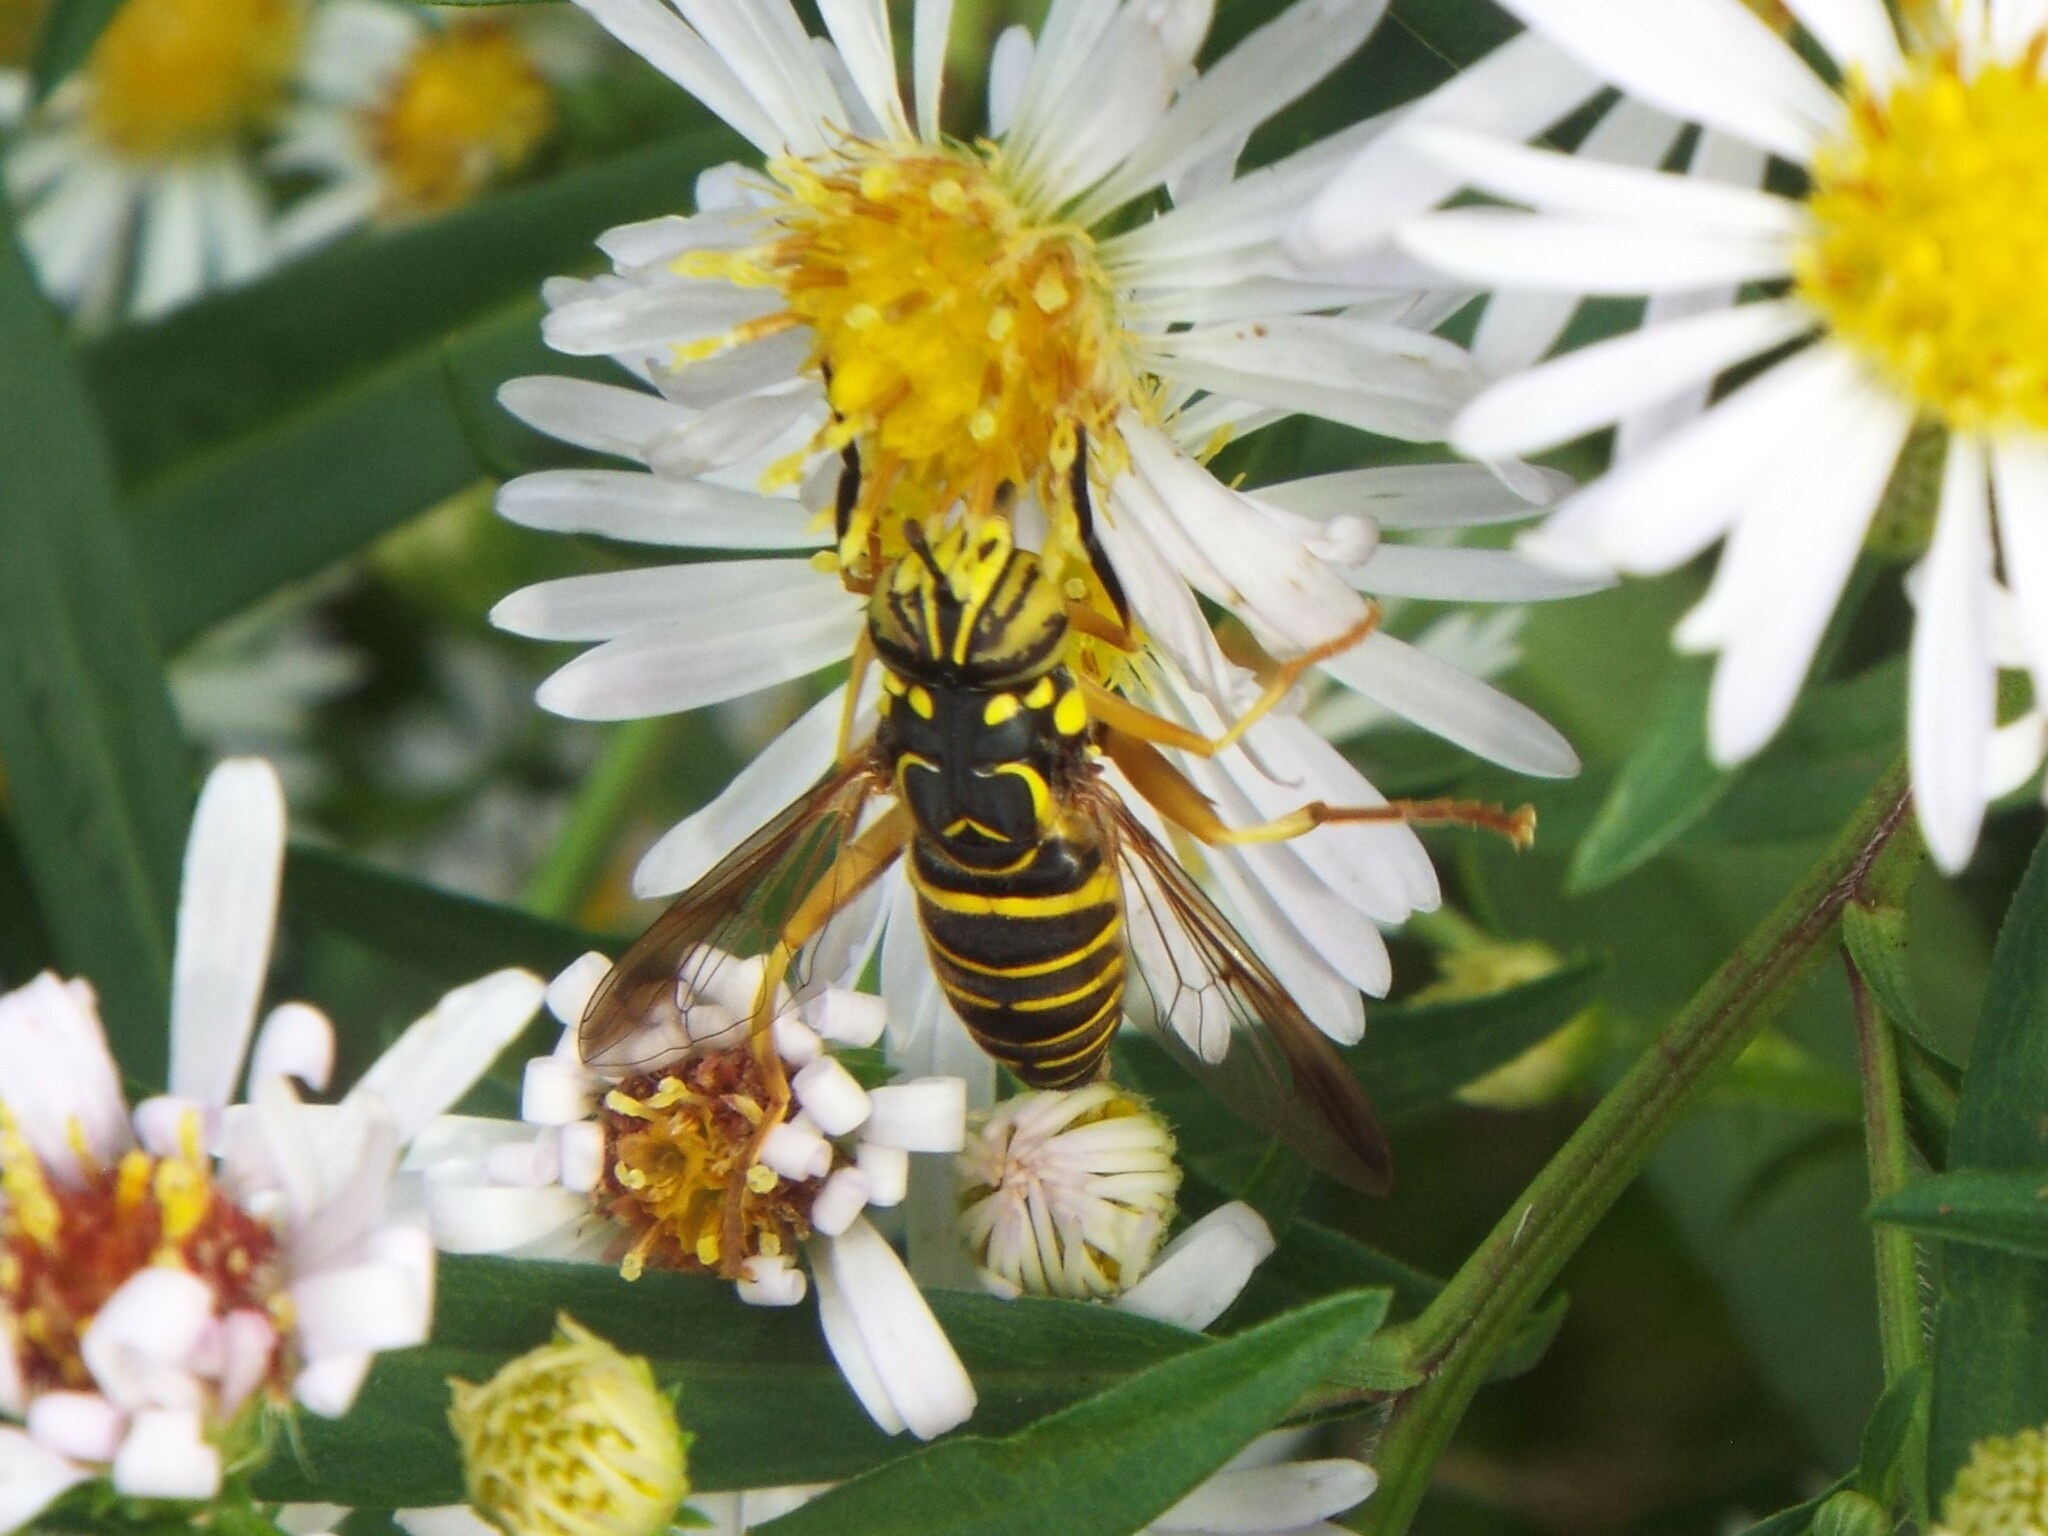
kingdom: Animalia
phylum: Arthropoda
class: Insecta
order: Diptera
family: Syrphidae
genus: Spilomyia
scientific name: Spilomyia longicornis
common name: Eastern hornet fly
